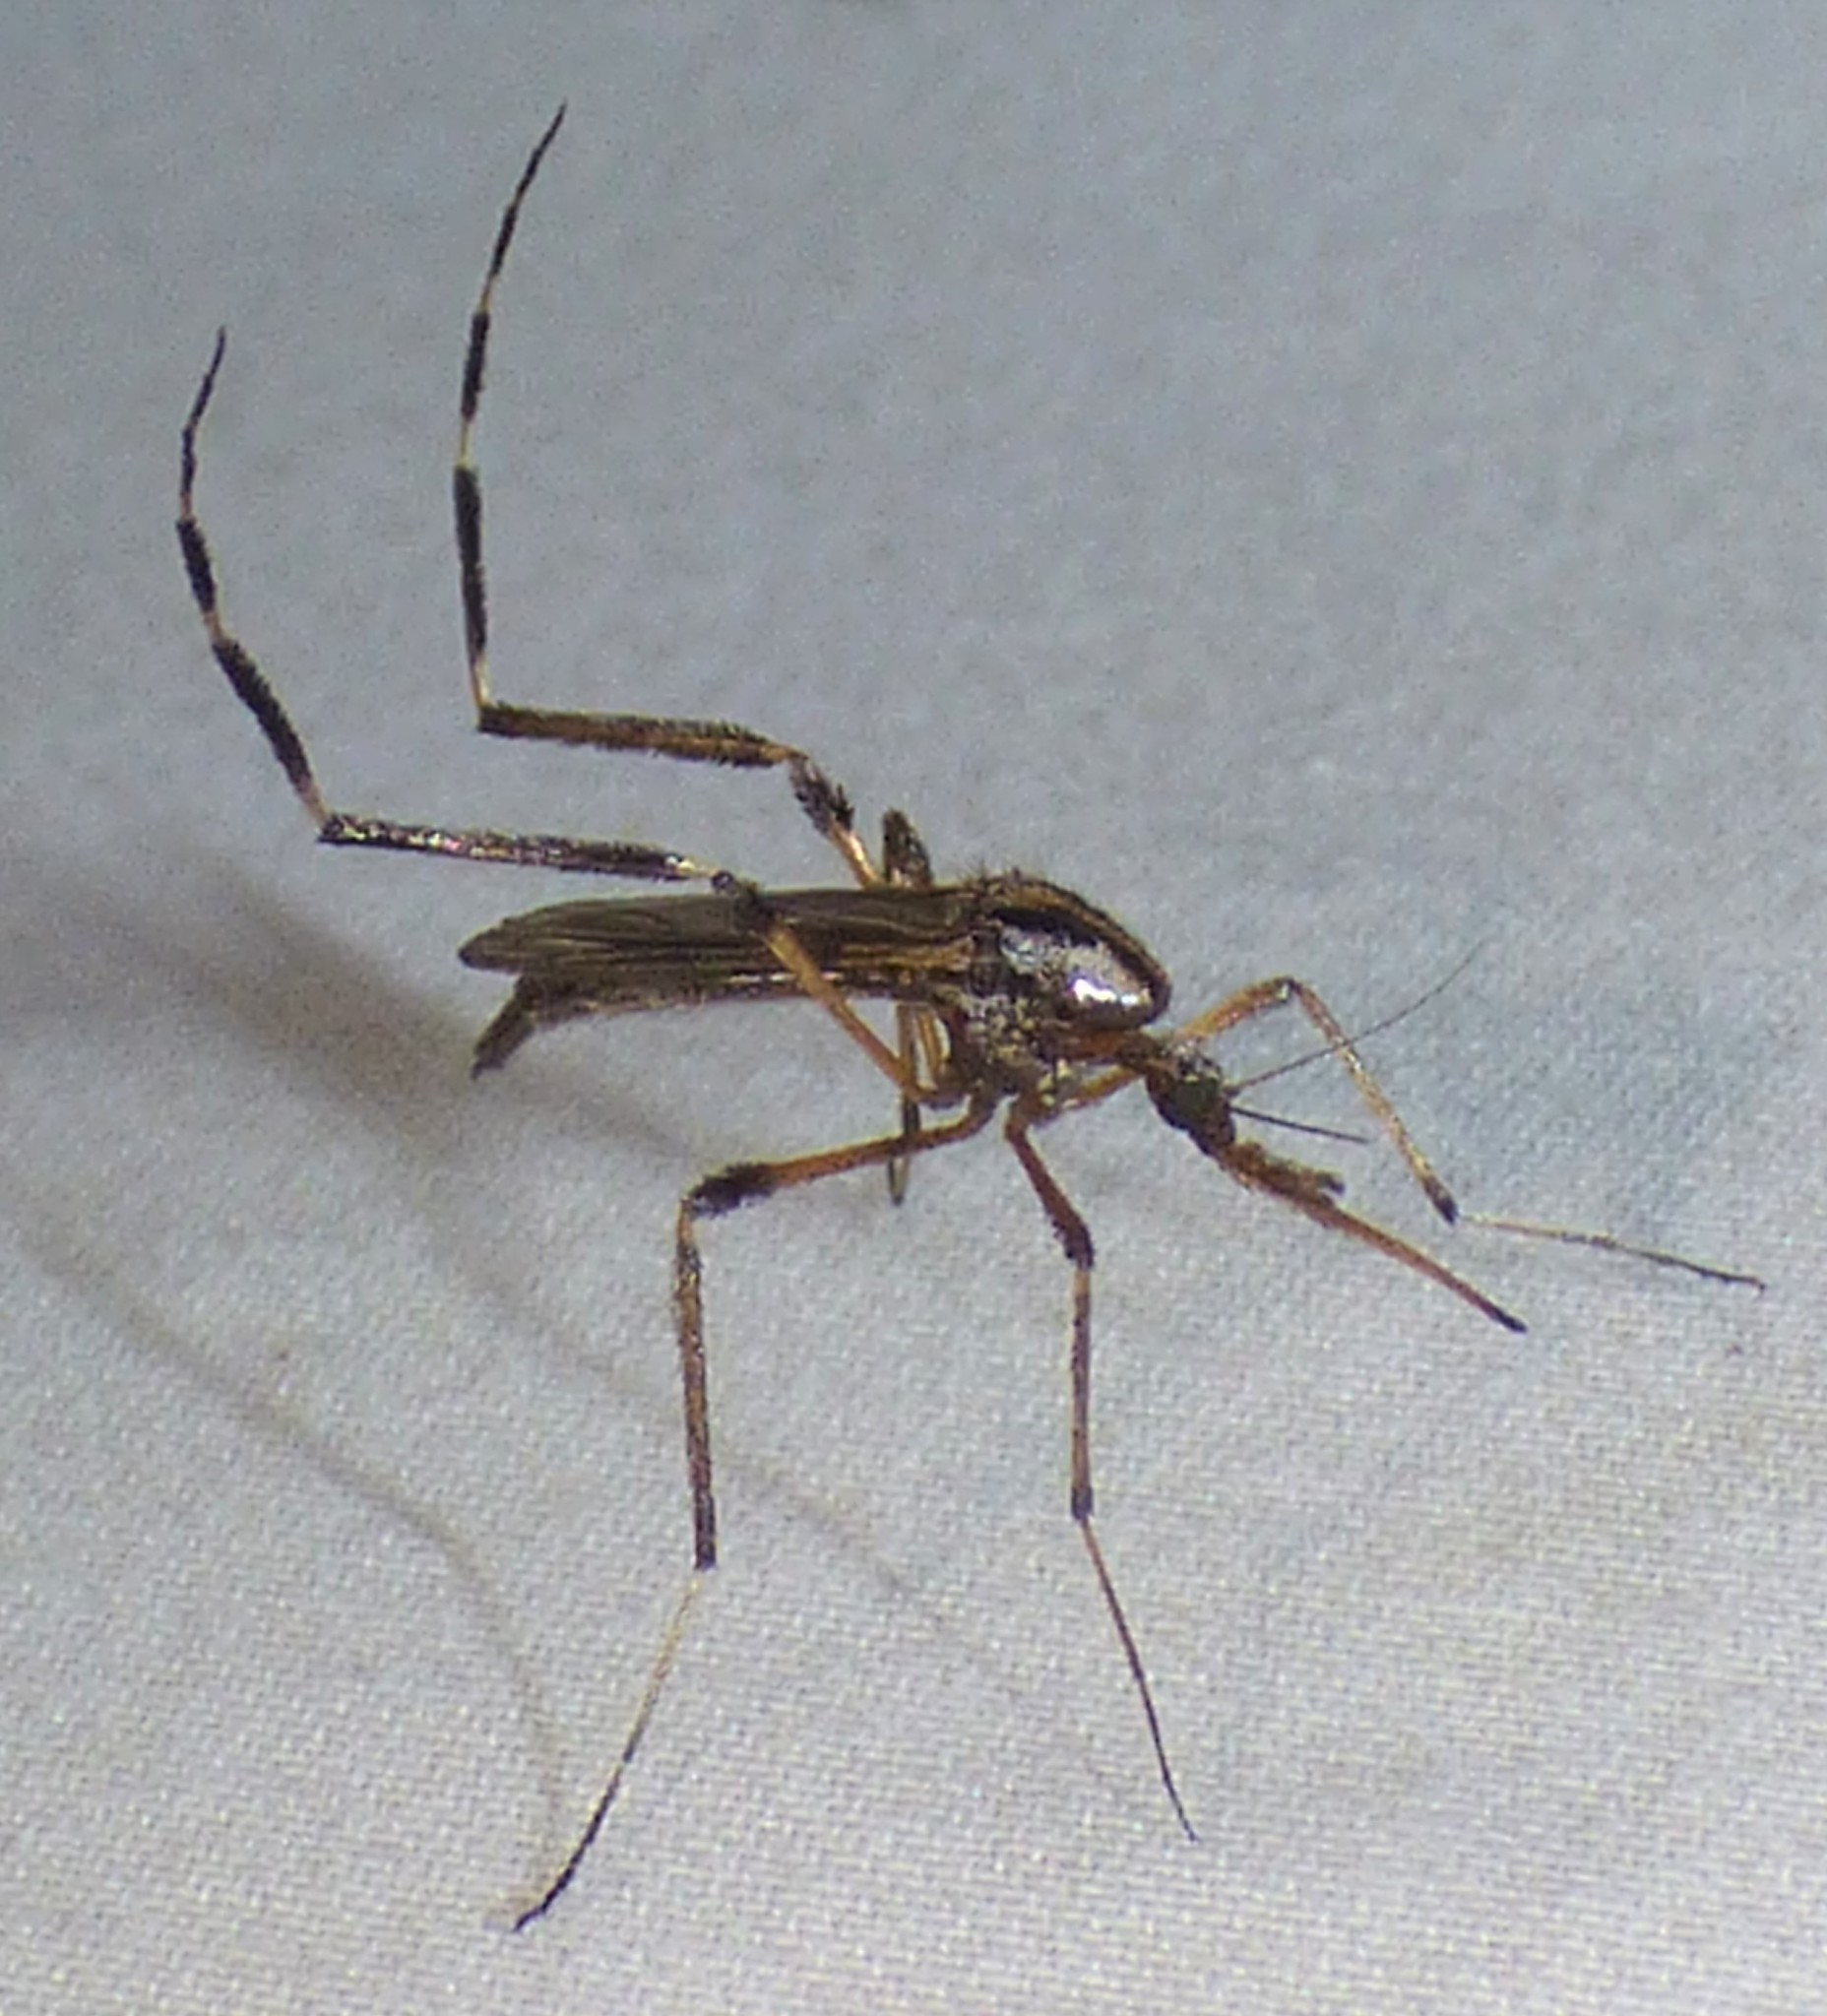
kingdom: Animalia
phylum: Arthropoda
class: Insecta
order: Diptera
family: Culicidae
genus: Psorophora
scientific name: Psorophora ciliata
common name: Gallinipper
